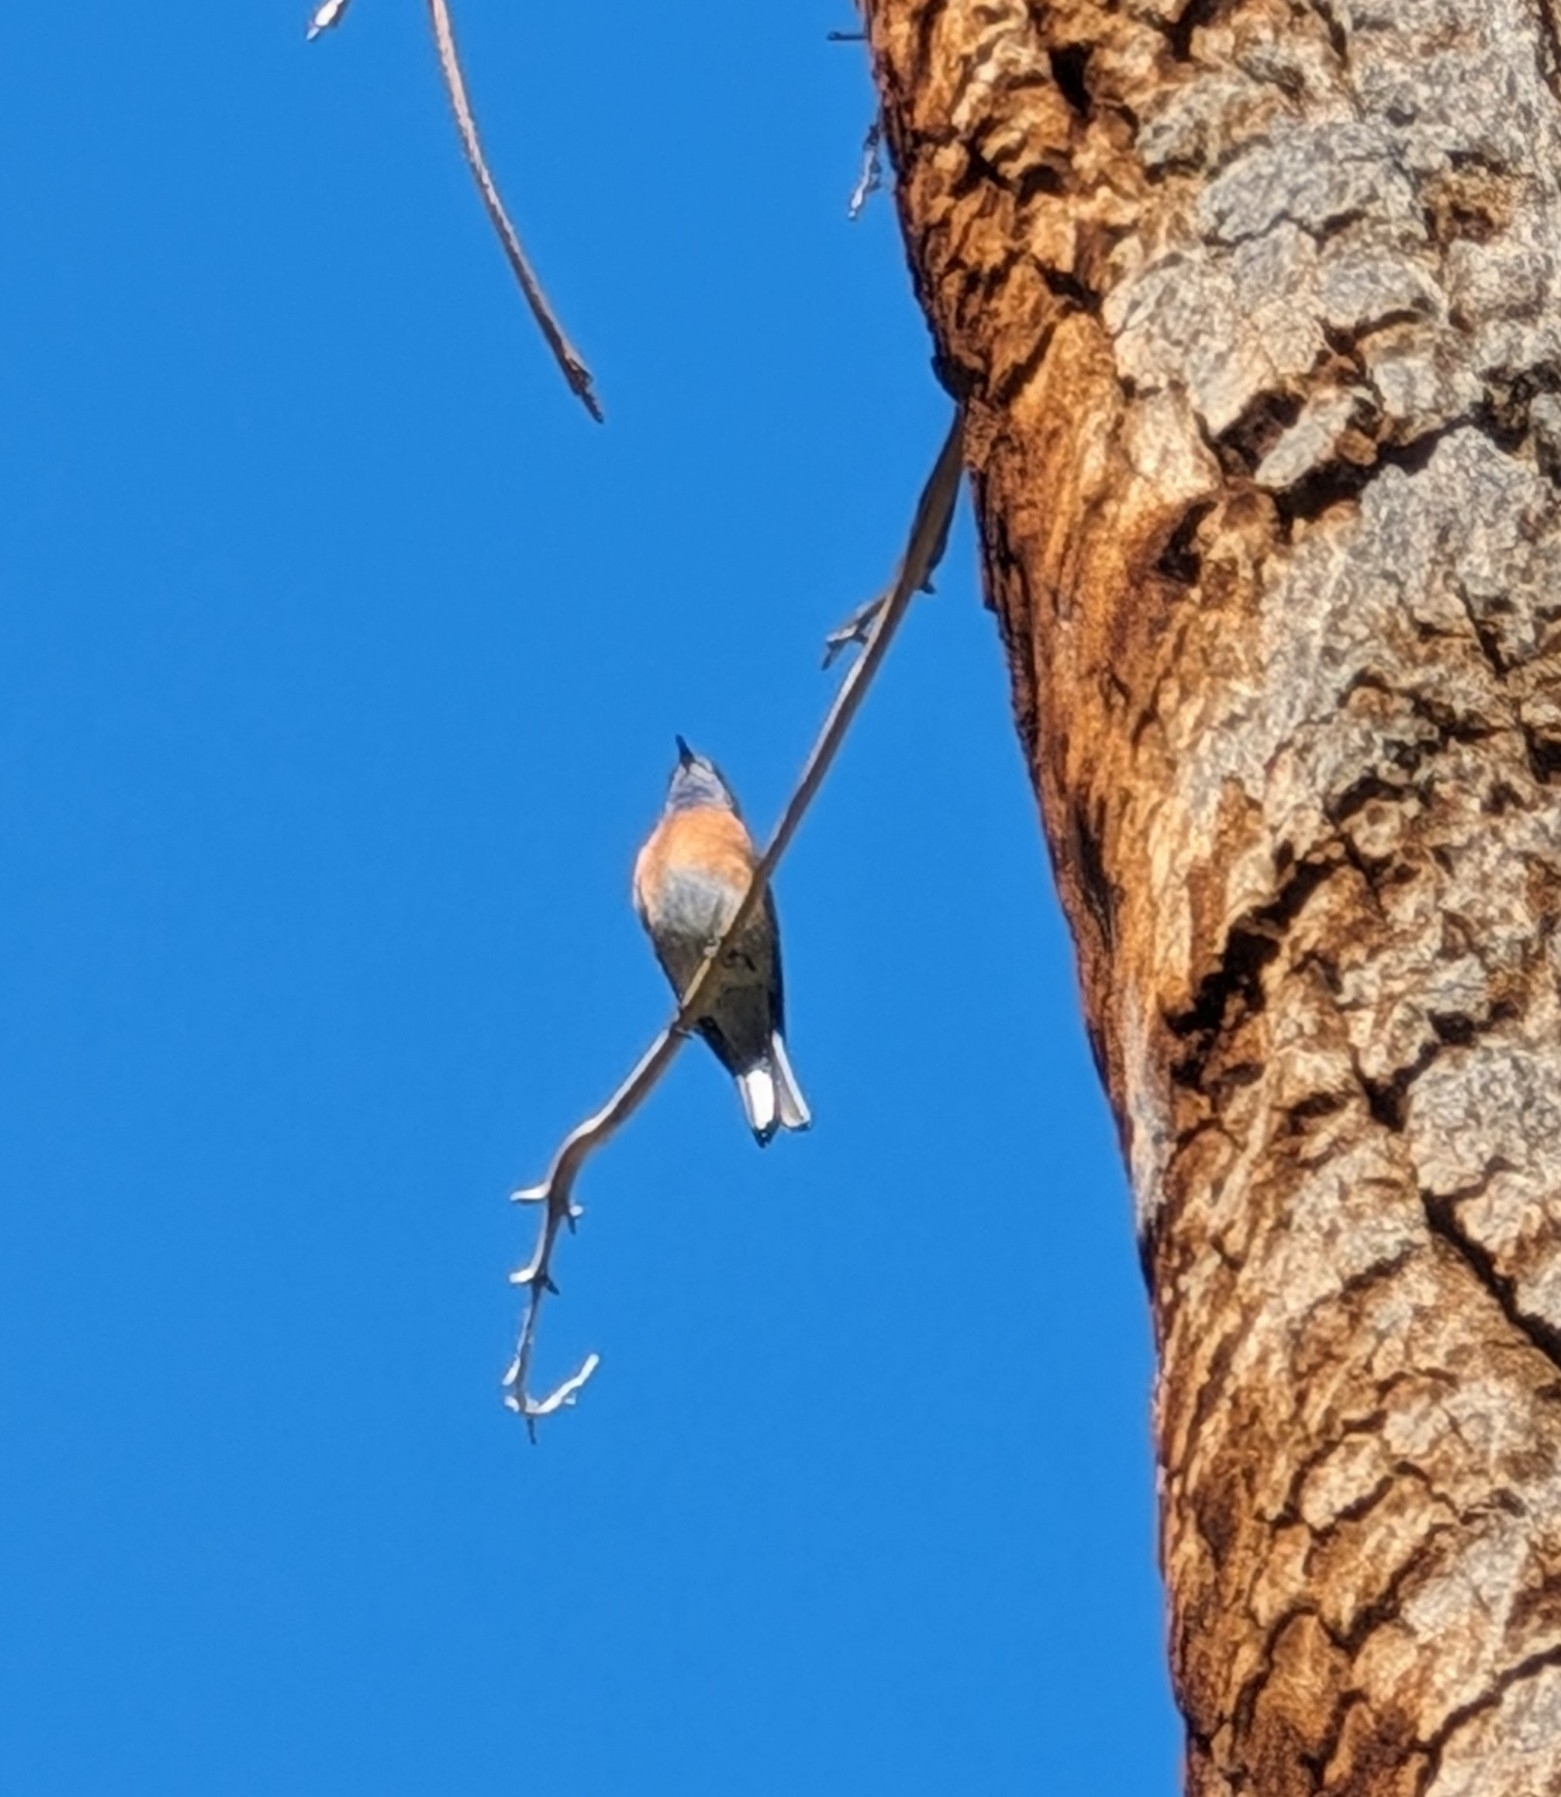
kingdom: Animalia
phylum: Chordata
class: Aves
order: Passeriformes
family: Turdidae
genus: Sialia
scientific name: Sialia mexicana
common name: Western bluebird
